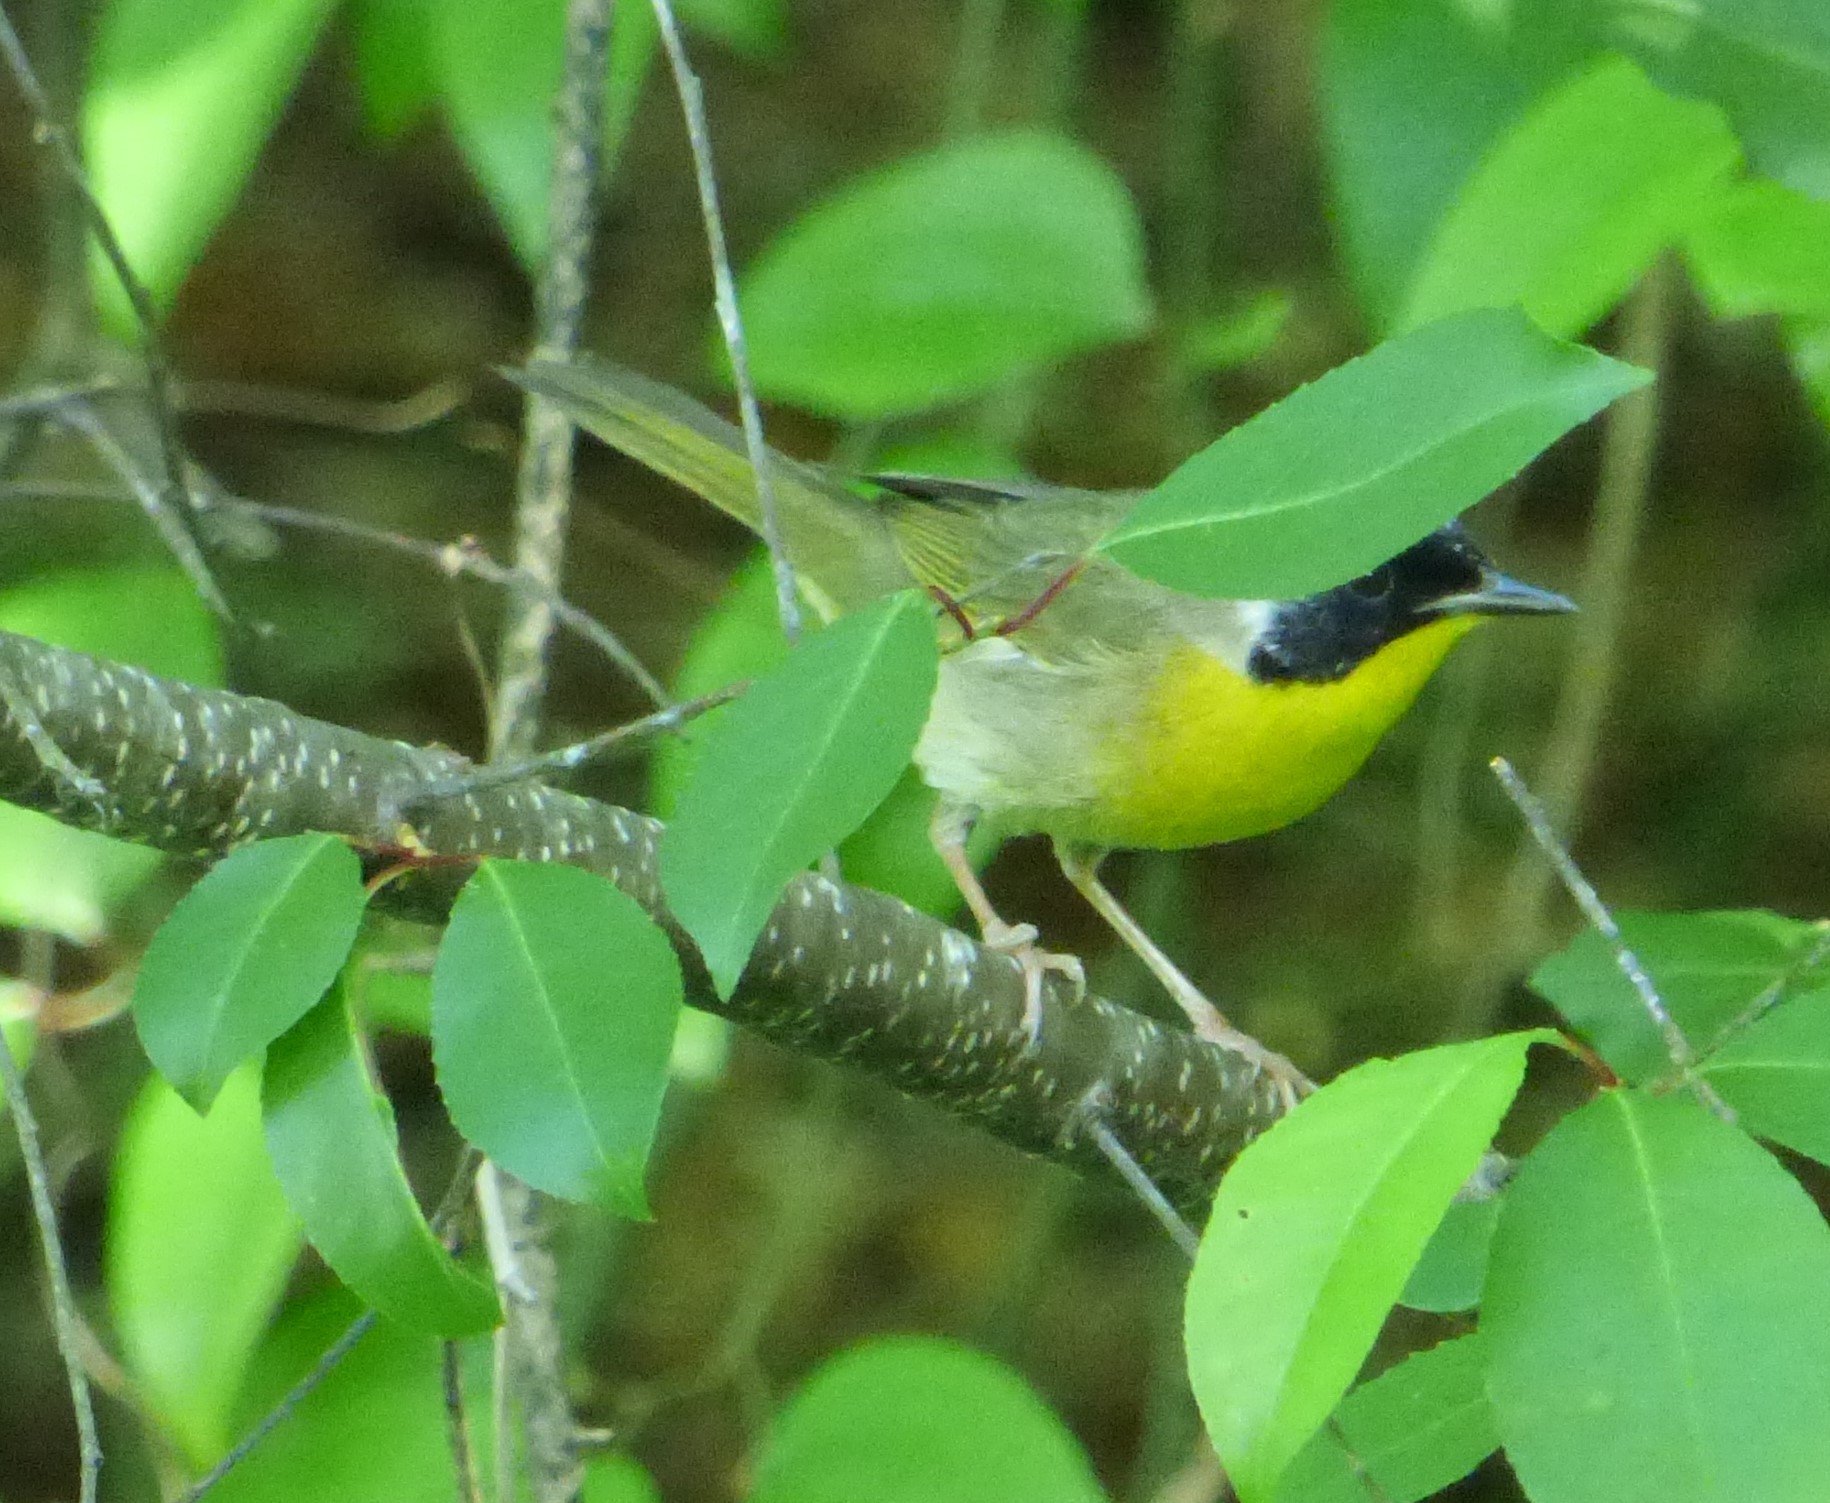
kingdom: Animalia
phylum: Chordata
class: Aves
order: Passeriformes
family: Parulidae
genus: Geothlypis
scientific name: Geothlypis trichas
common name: Common yellowthroat
